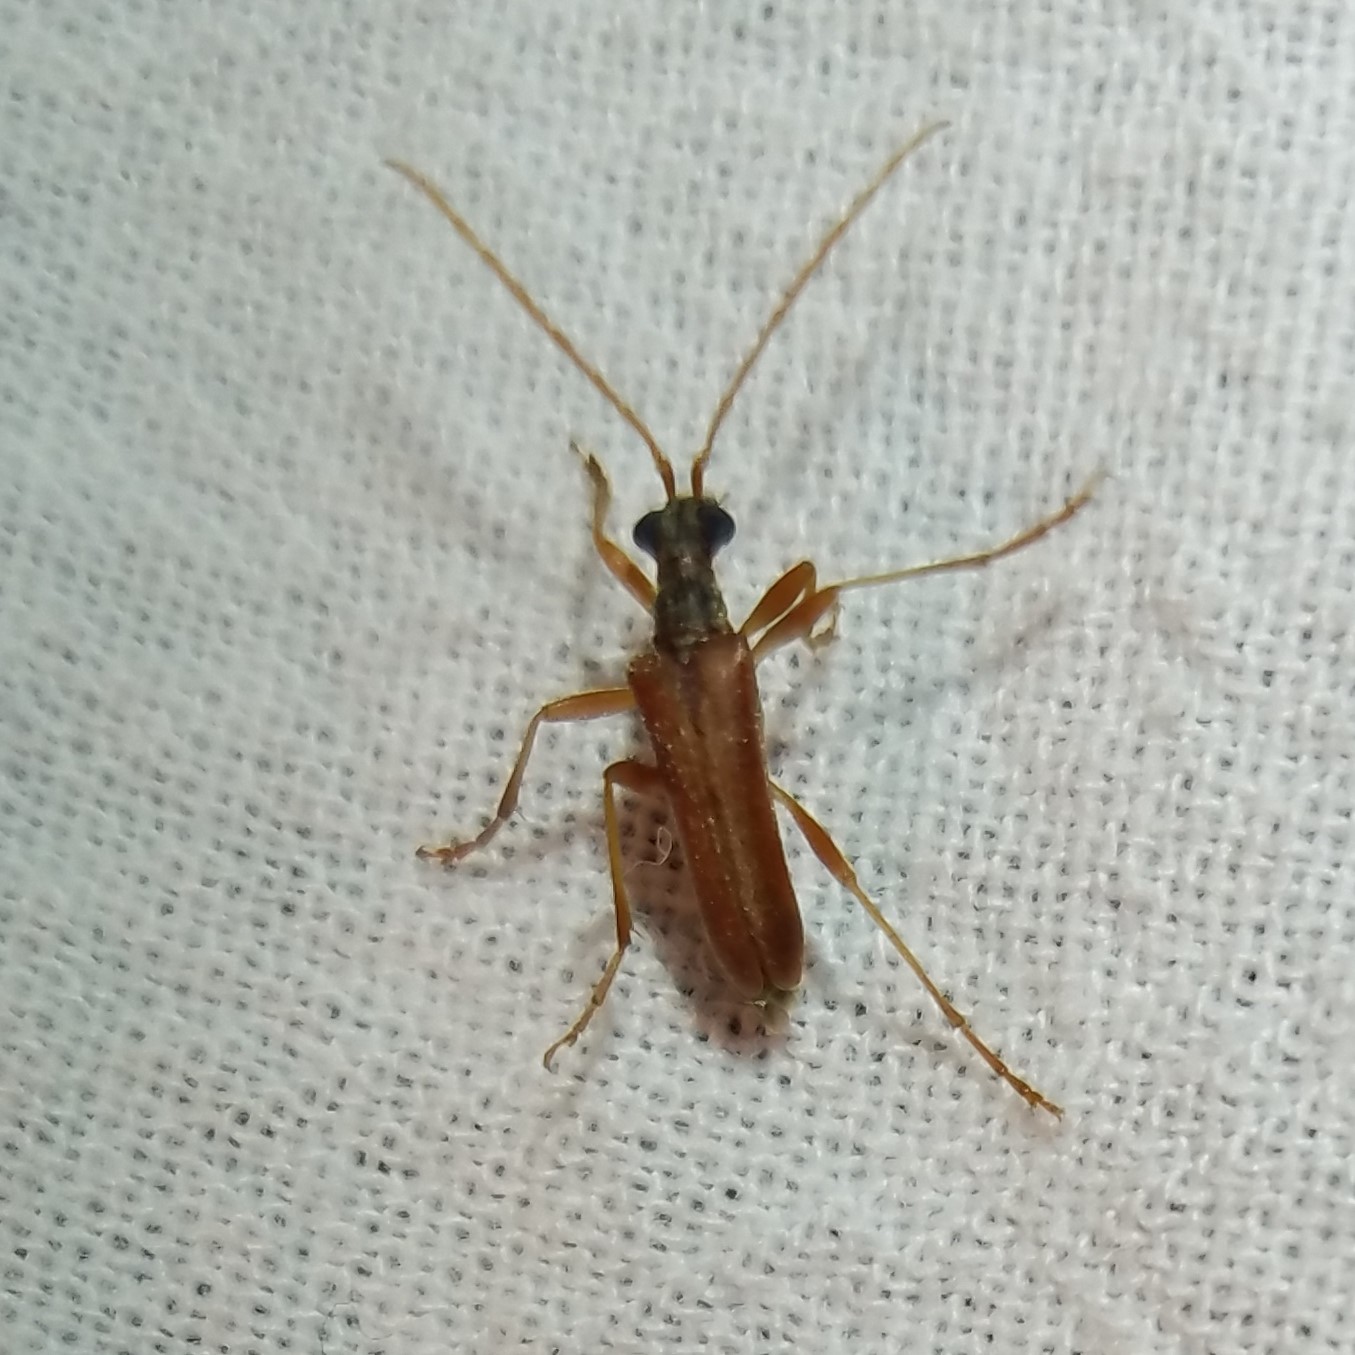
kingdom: Animalia
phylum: Arthropoda
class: Insecta
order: Coleoptera
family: Cerambycidae
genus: Stenocorus
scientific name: Stenocorus cinnamopterus
